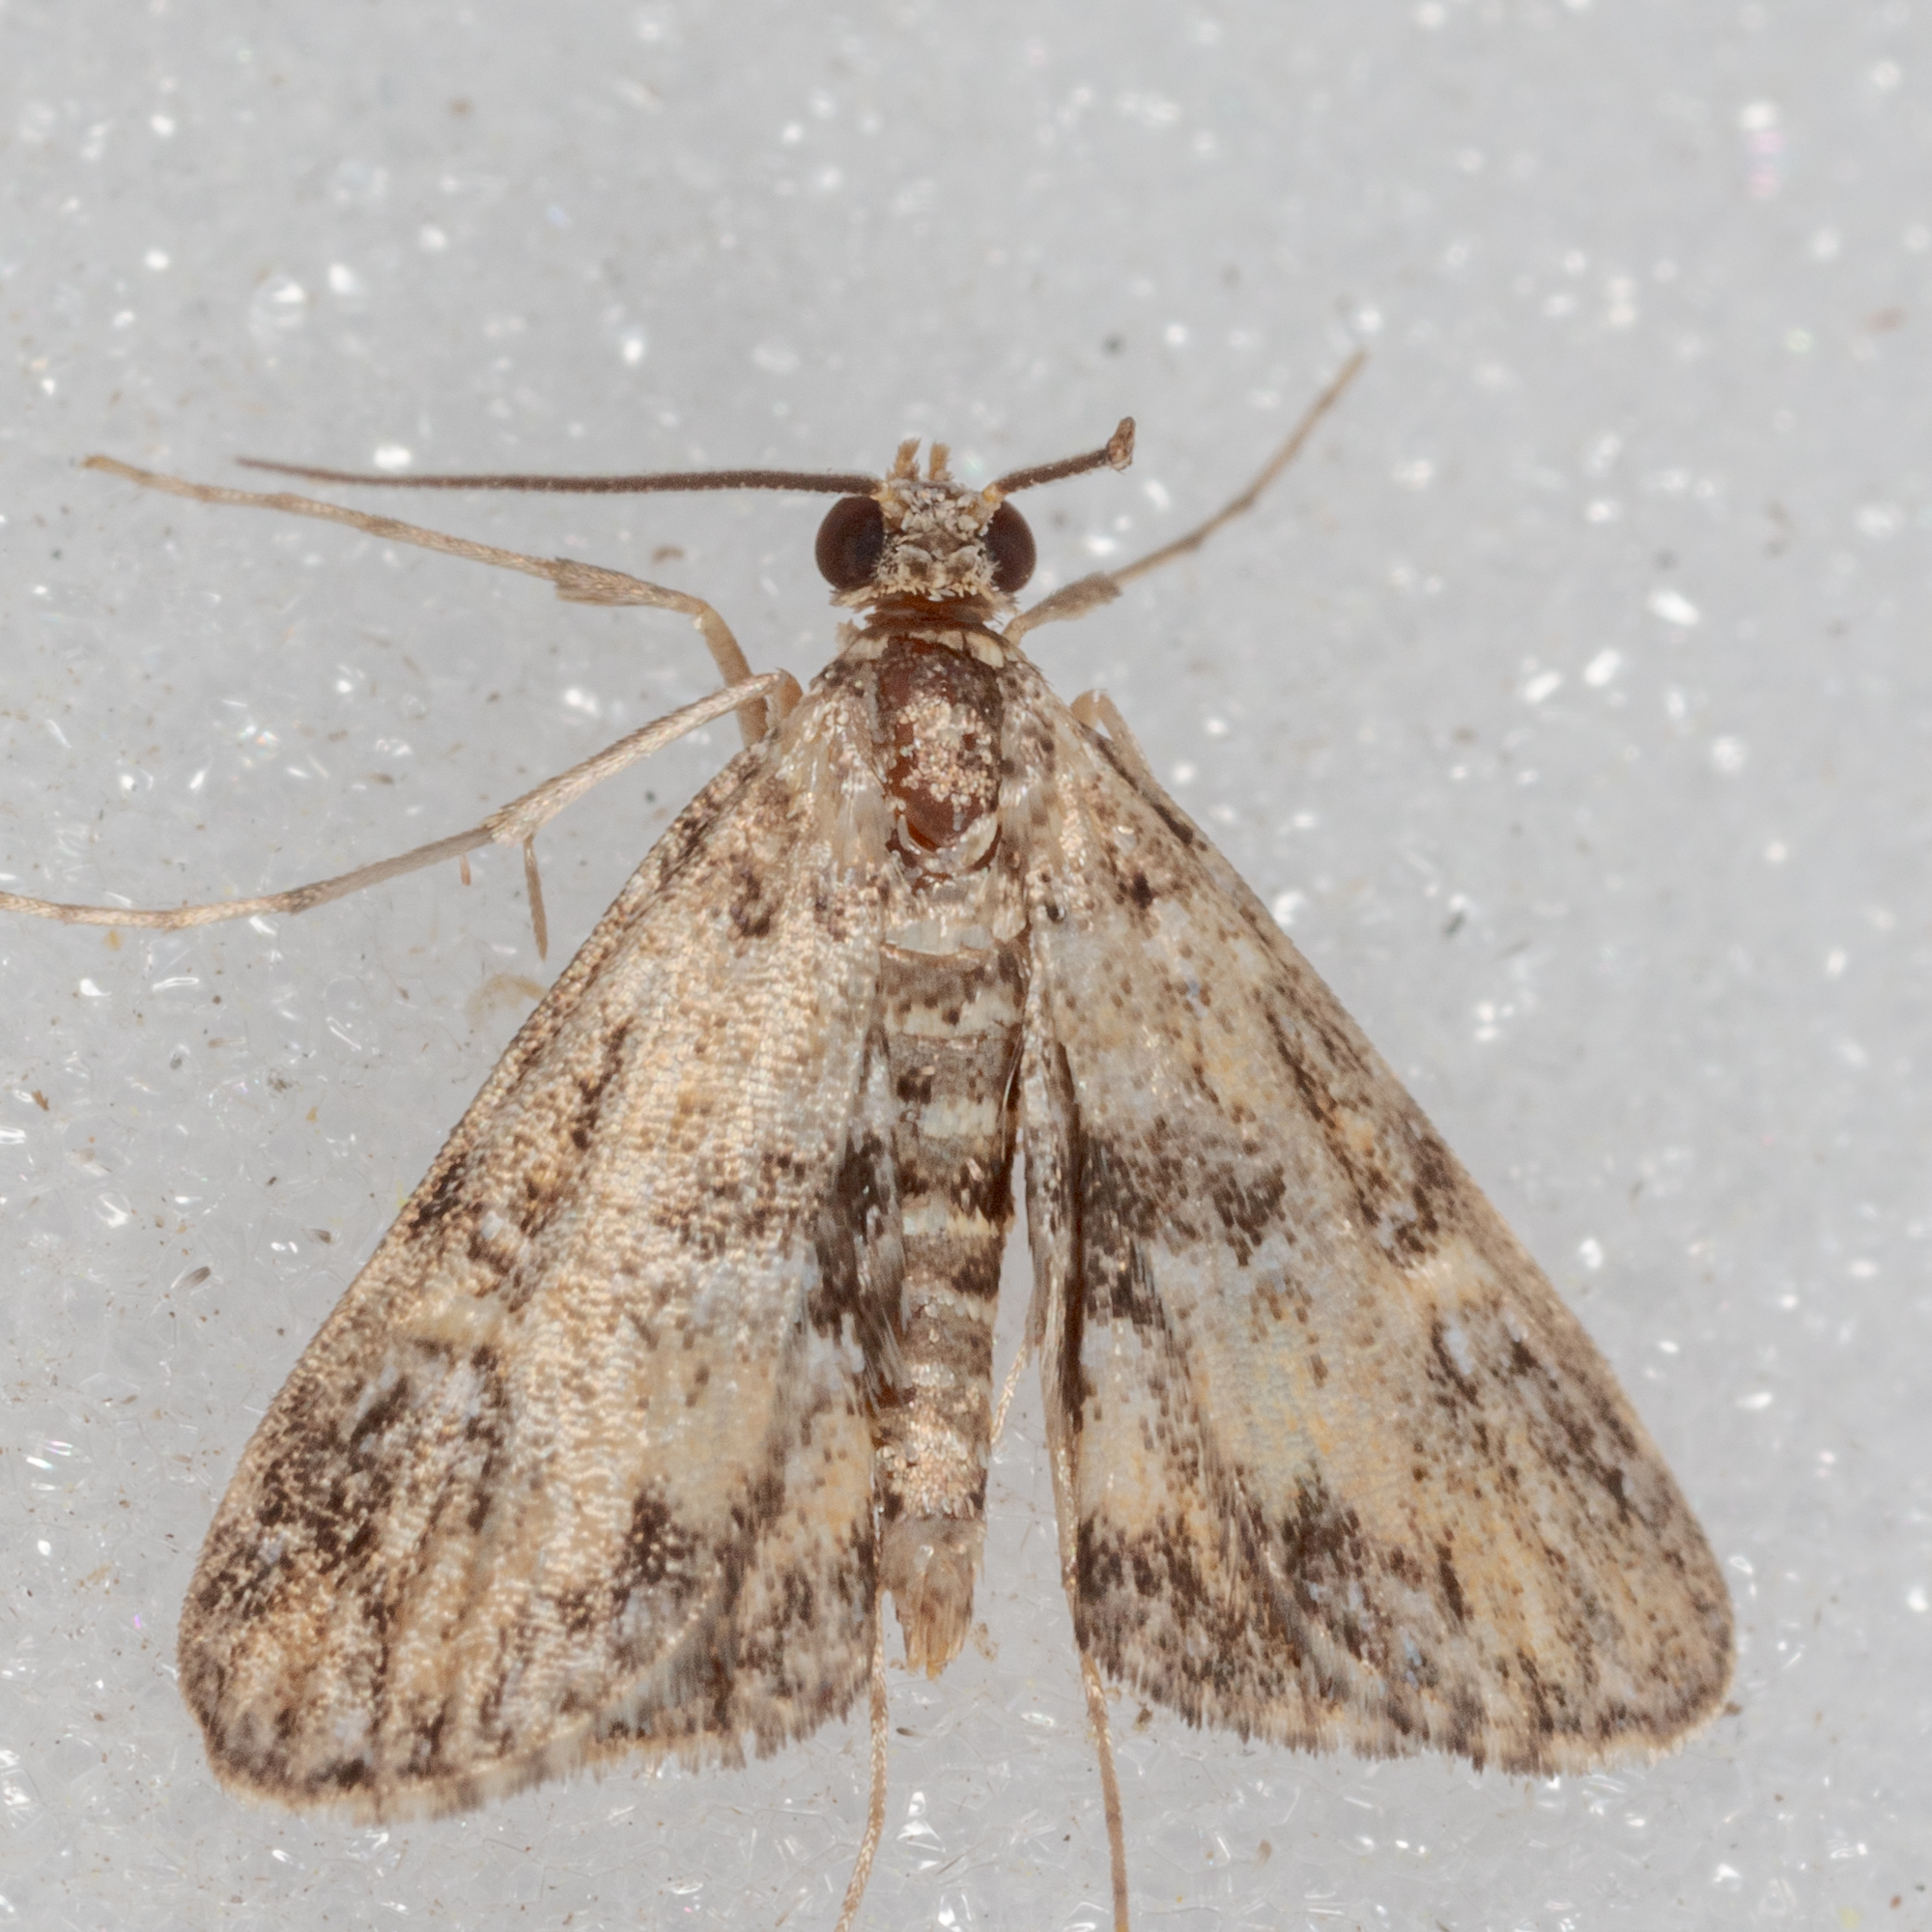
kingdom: Animalia
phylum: Arthropoda
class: Insecta
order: Lepidoptera
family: Crambidae
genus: Elophila
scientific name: Elophila obliteralis
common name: Waterlily leafcutter moth
